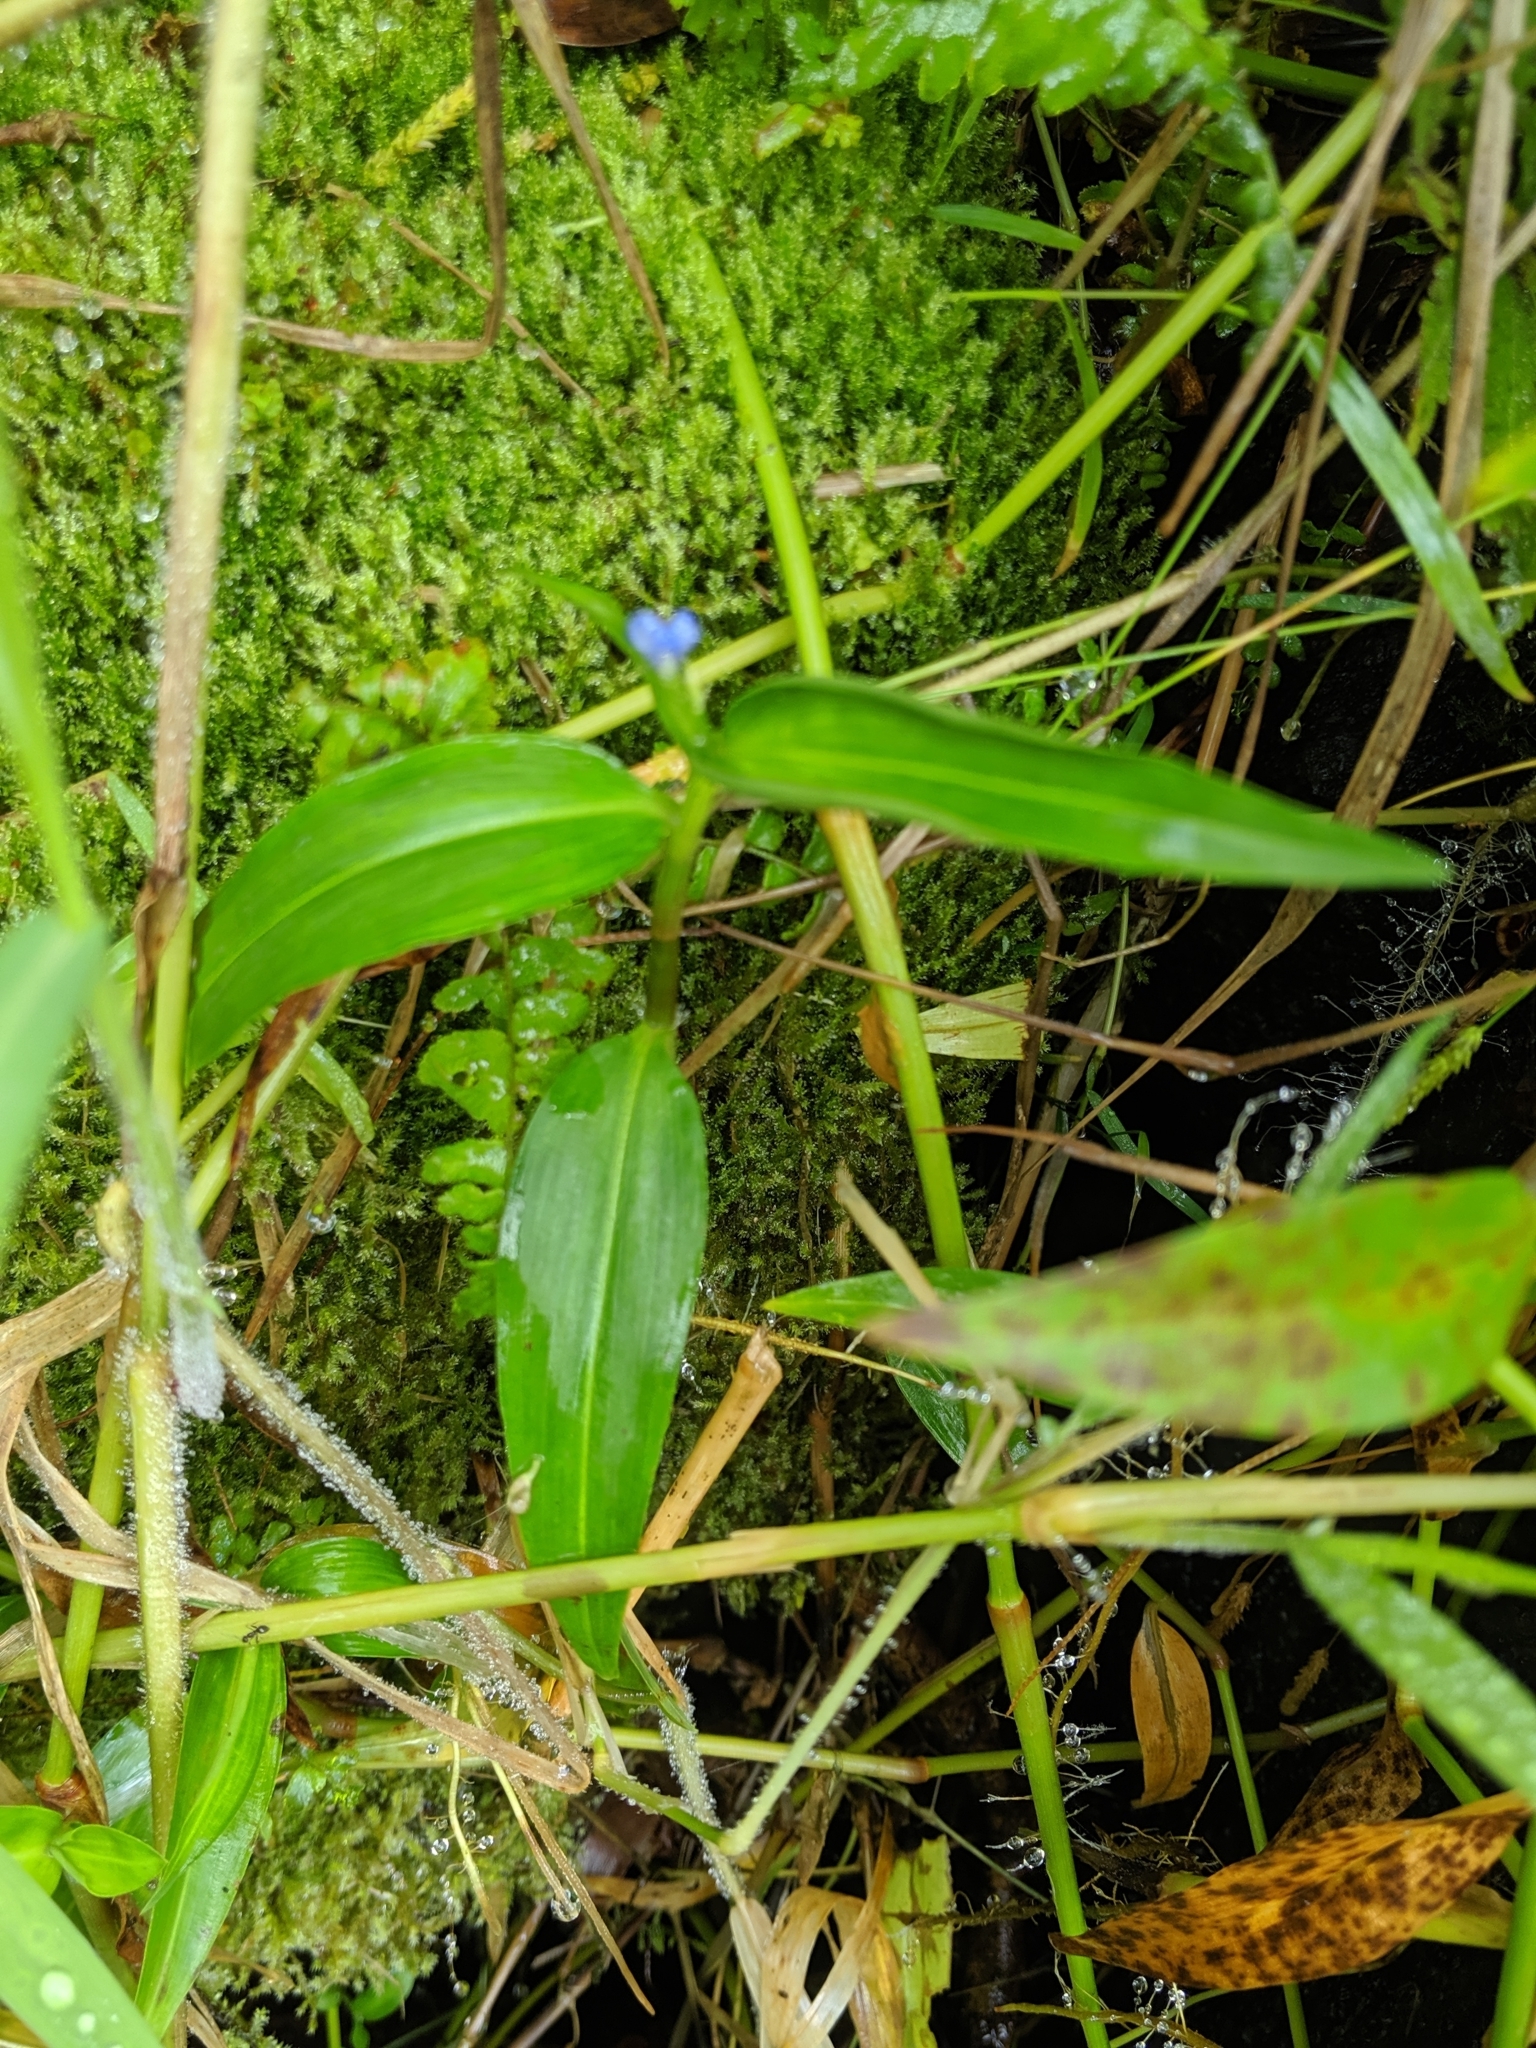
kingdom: Plantae
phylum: Tracheophyta
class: Liliopsida
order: Commelinales
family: Commelinaceae
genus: Commelina
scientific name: Commelina diffusa
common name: Climbing dayflower
